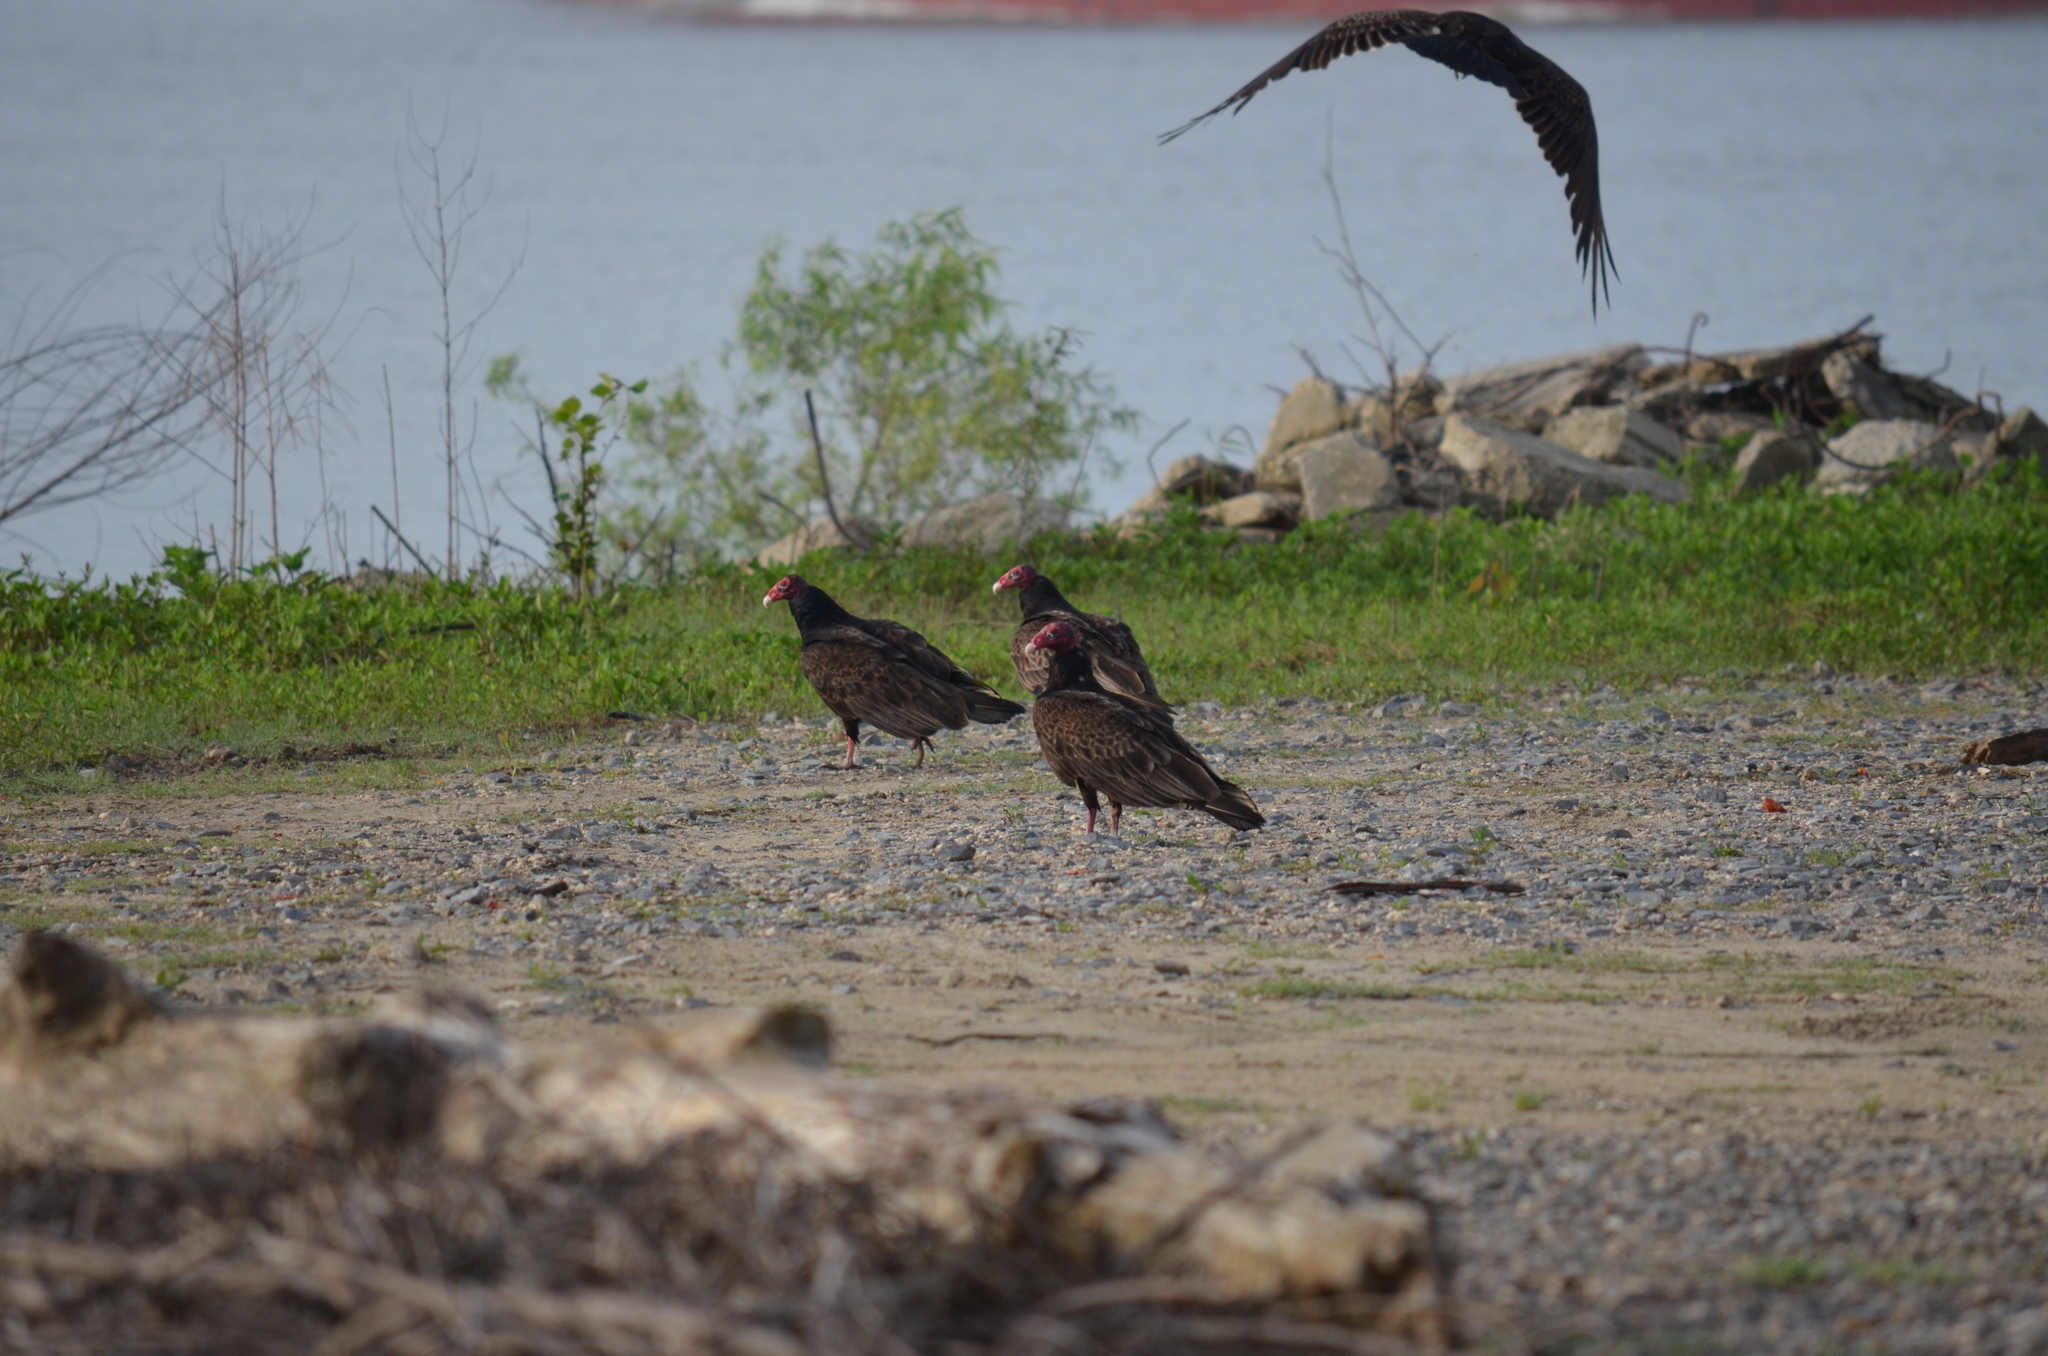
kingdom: Animalia
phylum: Chordata
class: Aves
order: Accipitriformes
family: Cathartidae
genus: Cathartes
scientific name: Cathartes aura
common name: Turkey vulture
